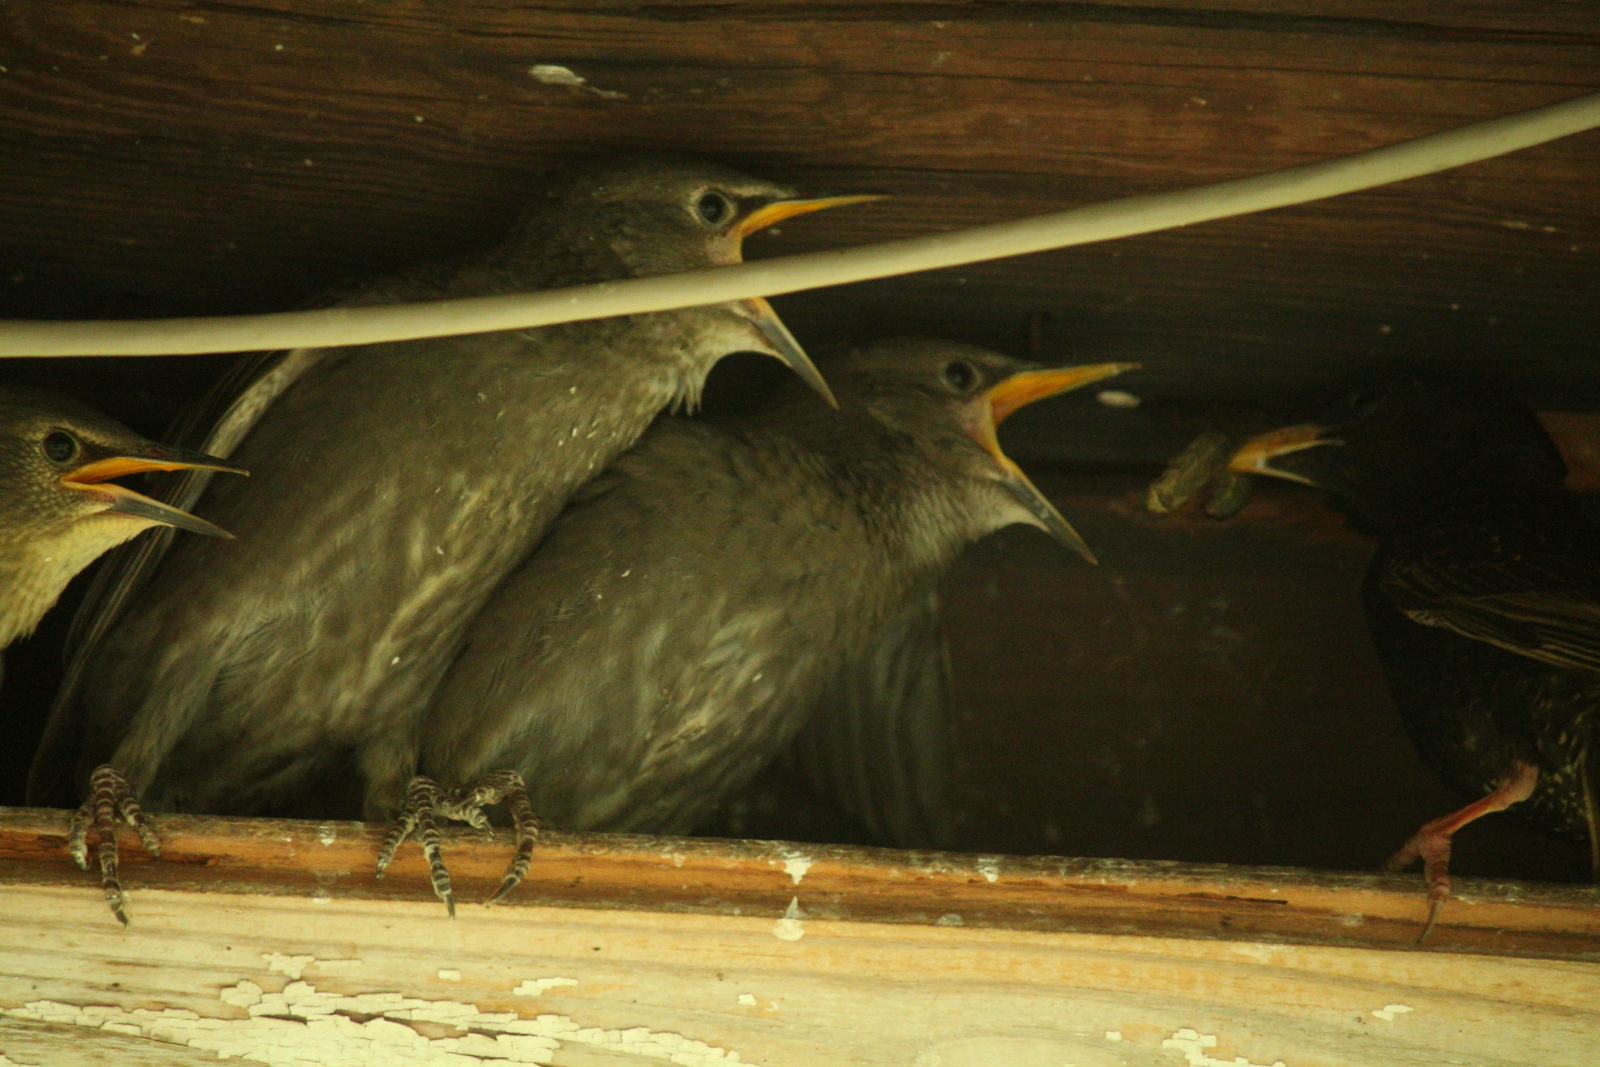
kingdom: Animalia
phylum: Chordata
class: Aves
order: Passeriformes
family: Sturnidae
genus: Sturnus
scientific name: Sturnus vulgaris
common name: Common starling
